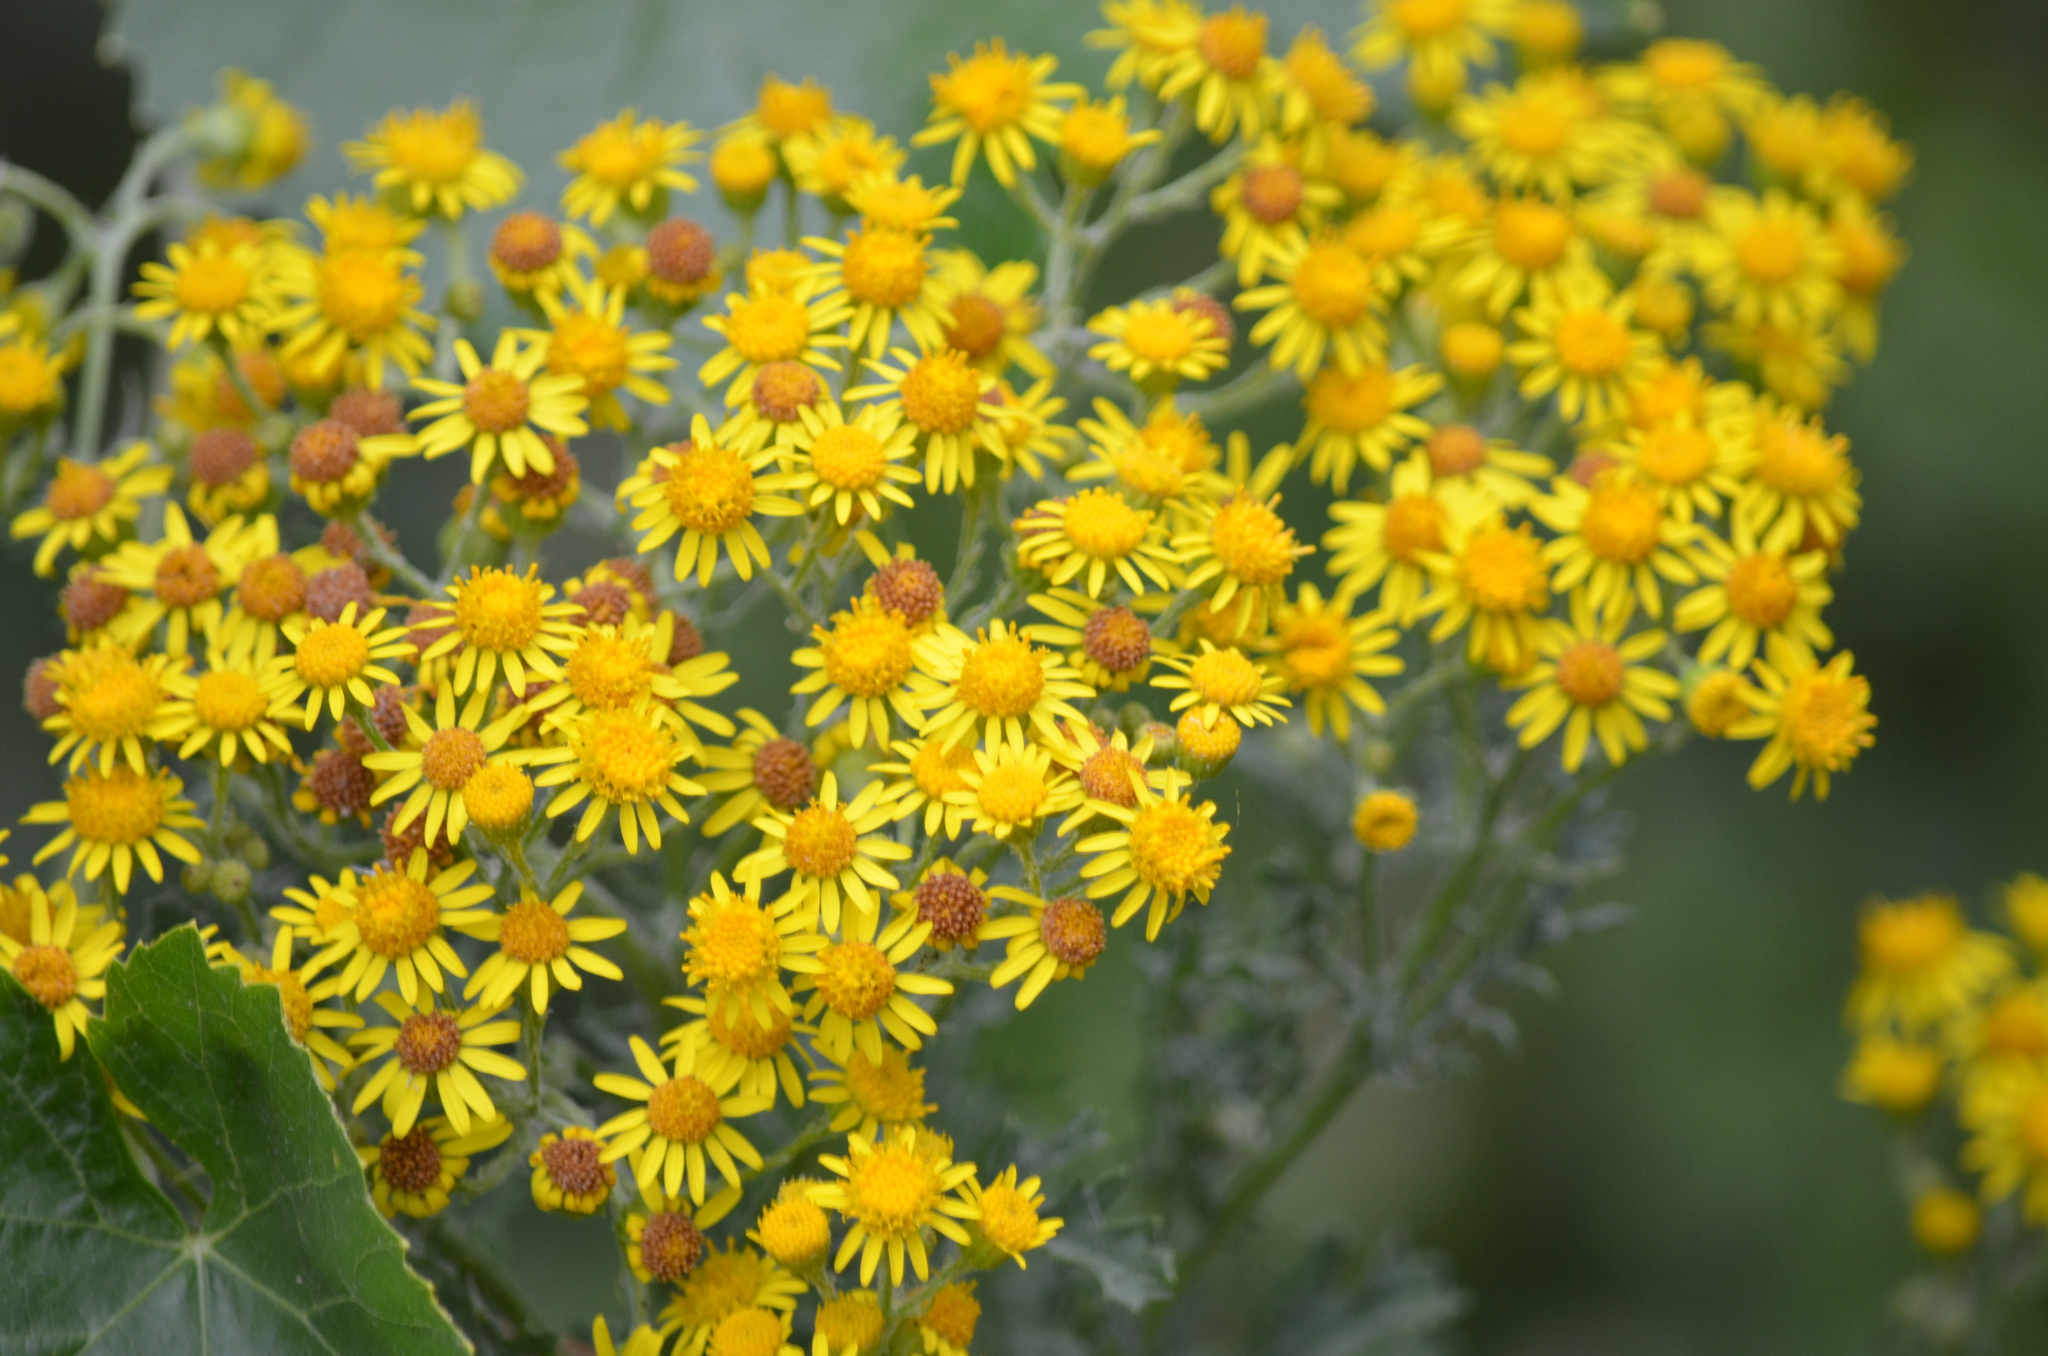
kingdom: Plantae
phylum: Tracheophyta
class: Magnoliopsida
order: Asterales
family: Asteraceae
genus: Jacobaea
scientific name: Jacobaea vulgaris
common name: Stinking willie
